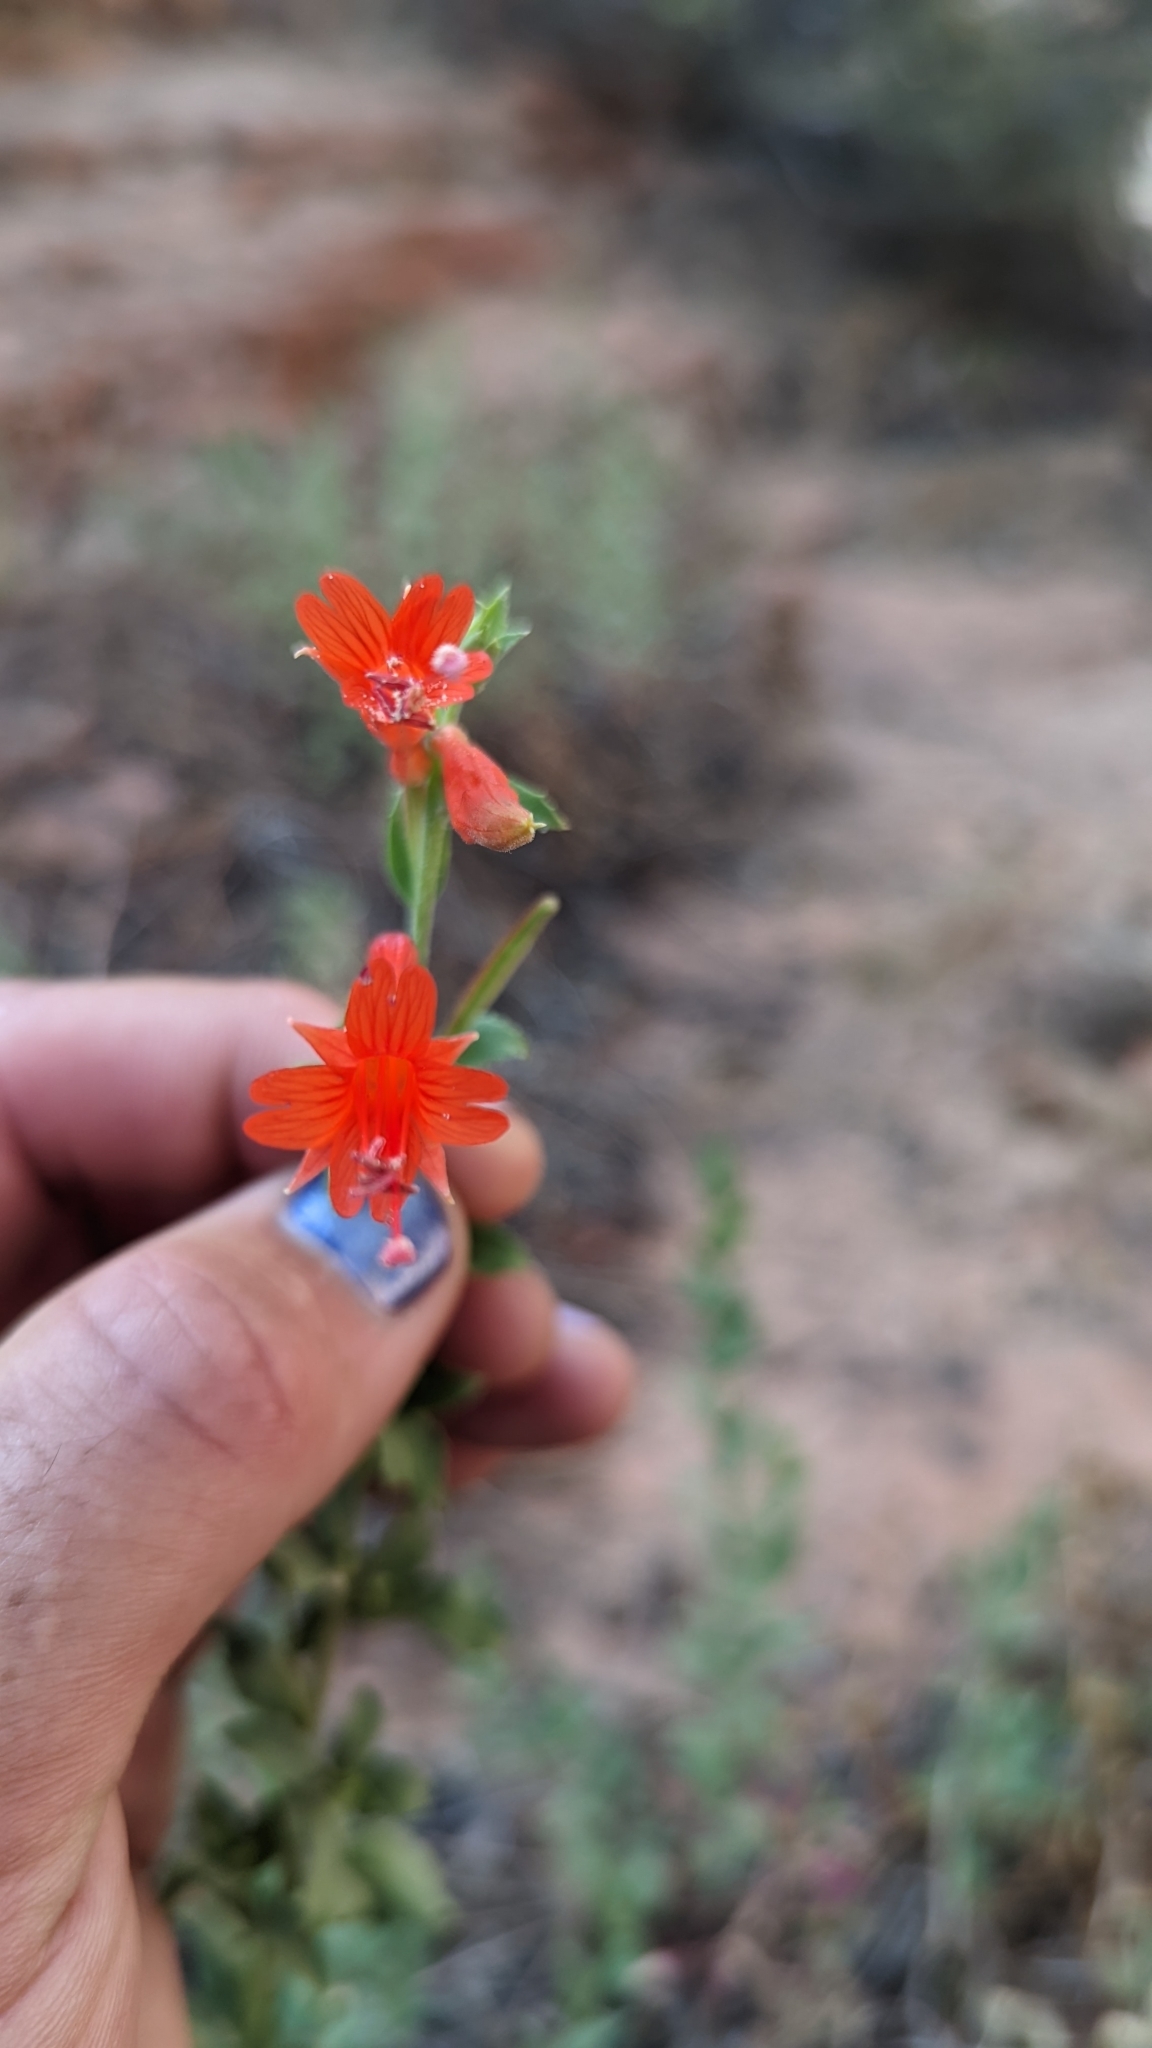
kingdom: Plantae
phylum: Tracheophyta
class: Magnoliopsida
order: Myrtales
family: Onagraceae
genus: Epilobium
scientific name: Epilobium canum
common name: California-fuchsia
